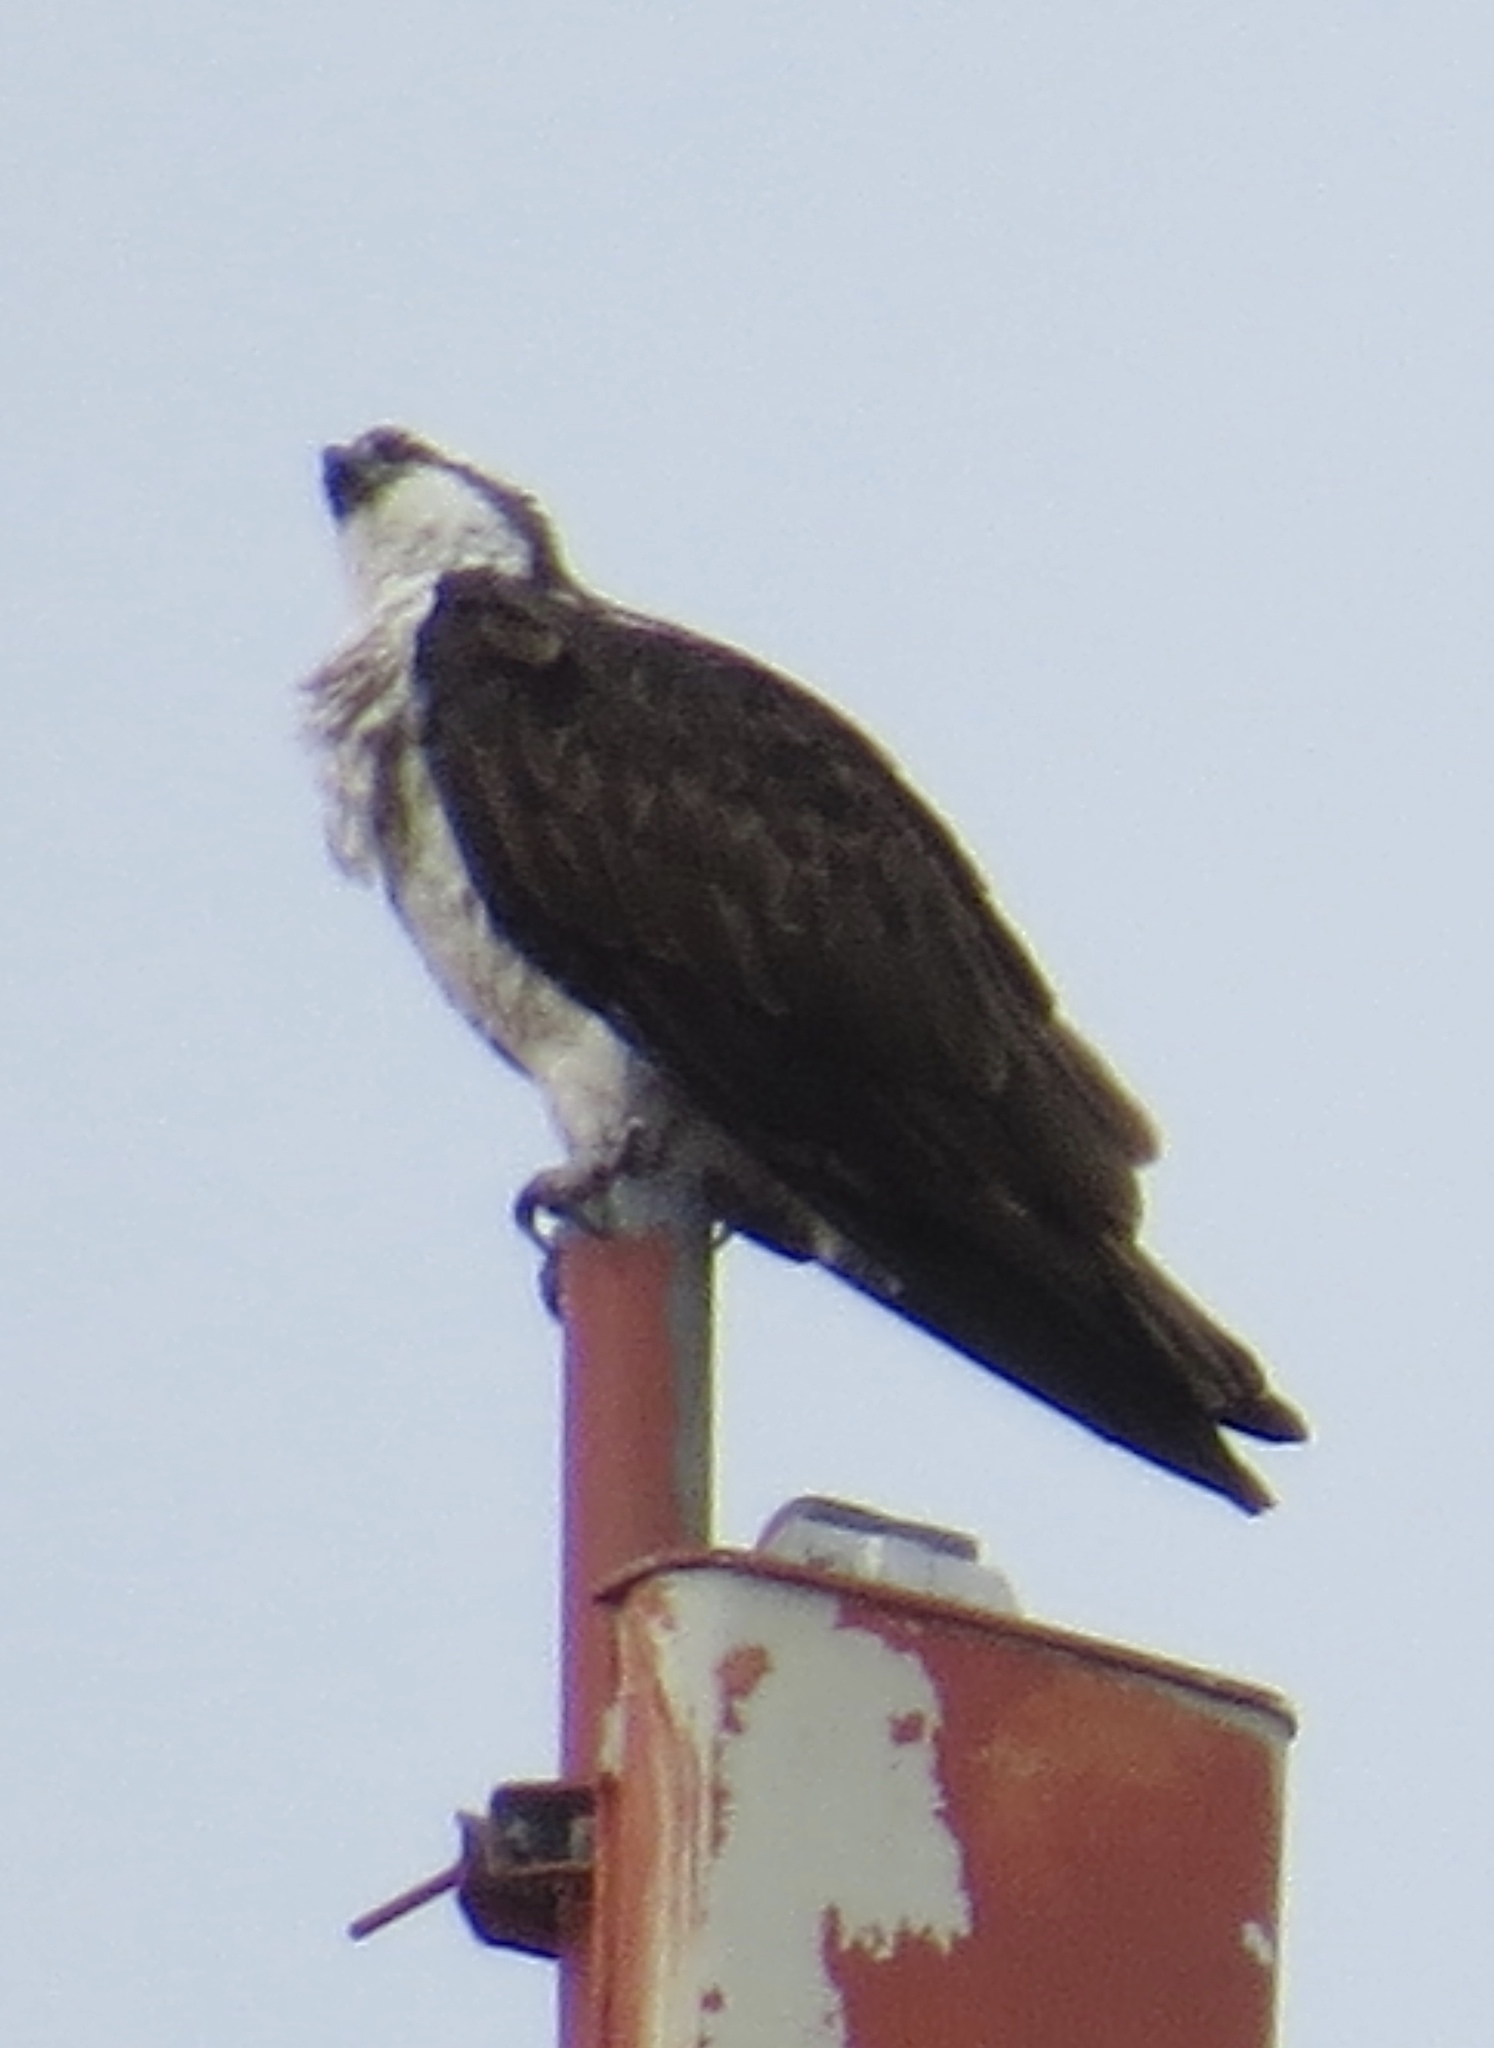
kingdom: Animalia
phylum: Chordata
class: Aves
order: Accipitriformes
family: Pandionidae
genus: Pandion
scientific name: Pandion haliaetus
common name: Osprey
